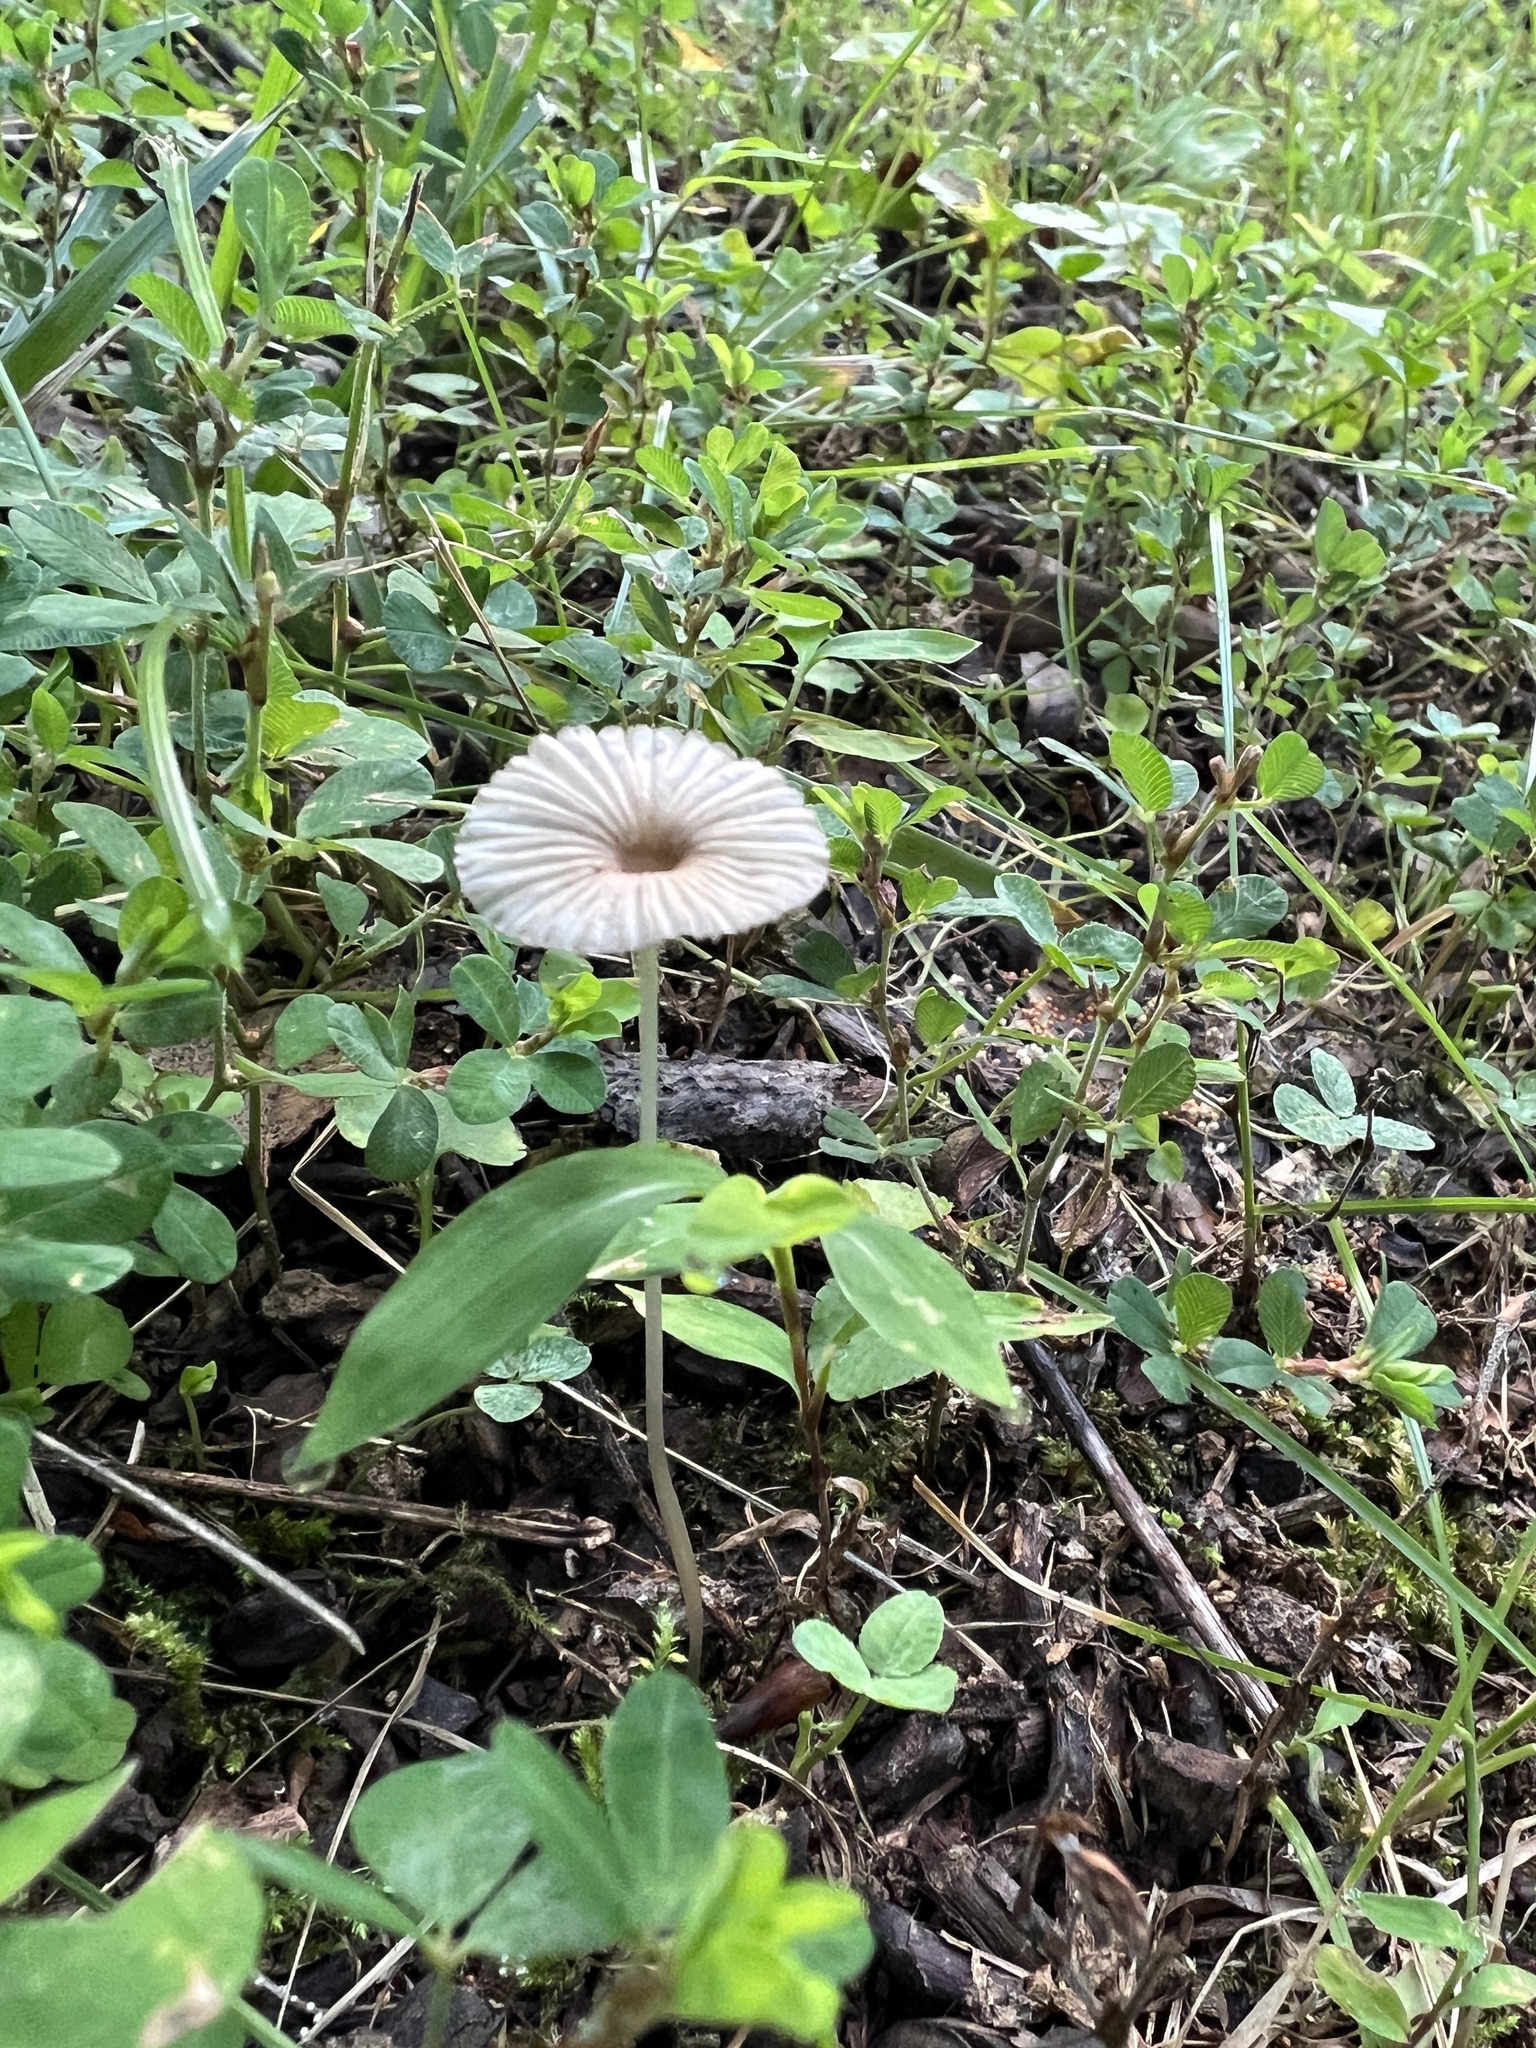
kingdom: Fungi
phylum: Basidiomycota
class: Agaricomycetes
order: Agaricales
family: Psathyrellaceae
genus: Parasola
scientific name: Parasola plicatilis
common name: Pleated inkcap
